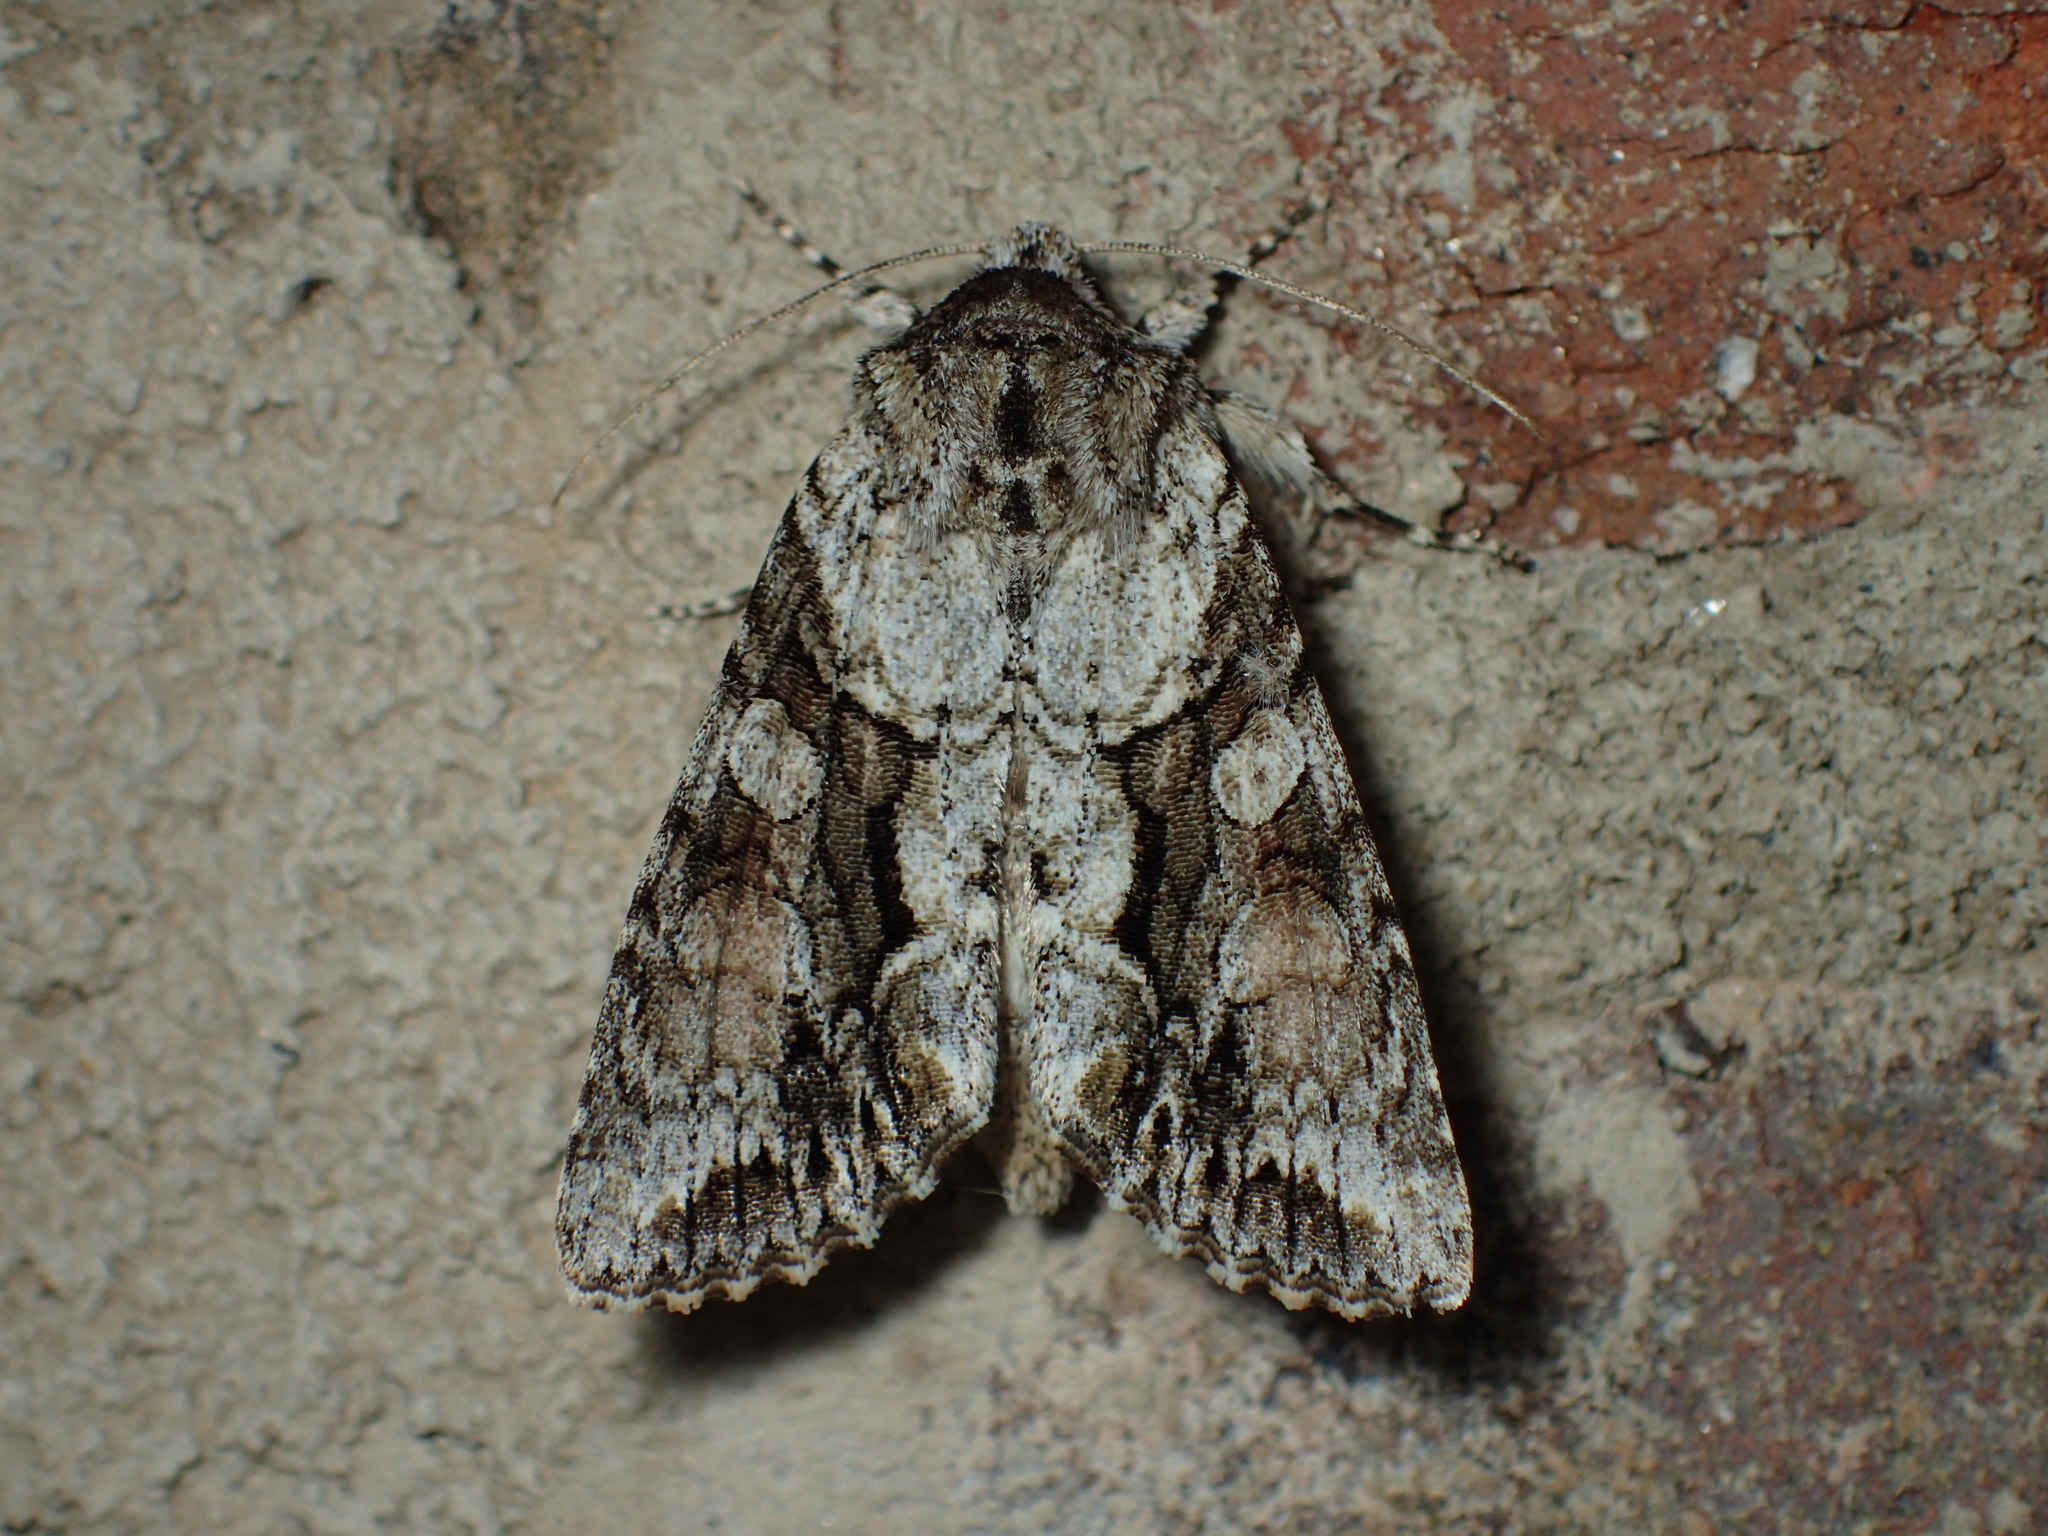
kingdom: Animalia
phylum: Arthropoda
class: Insecta
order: Lepidoptera
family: Noctuidae
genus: Achatia
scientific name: Achatia distincta
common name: Distinct quaker
